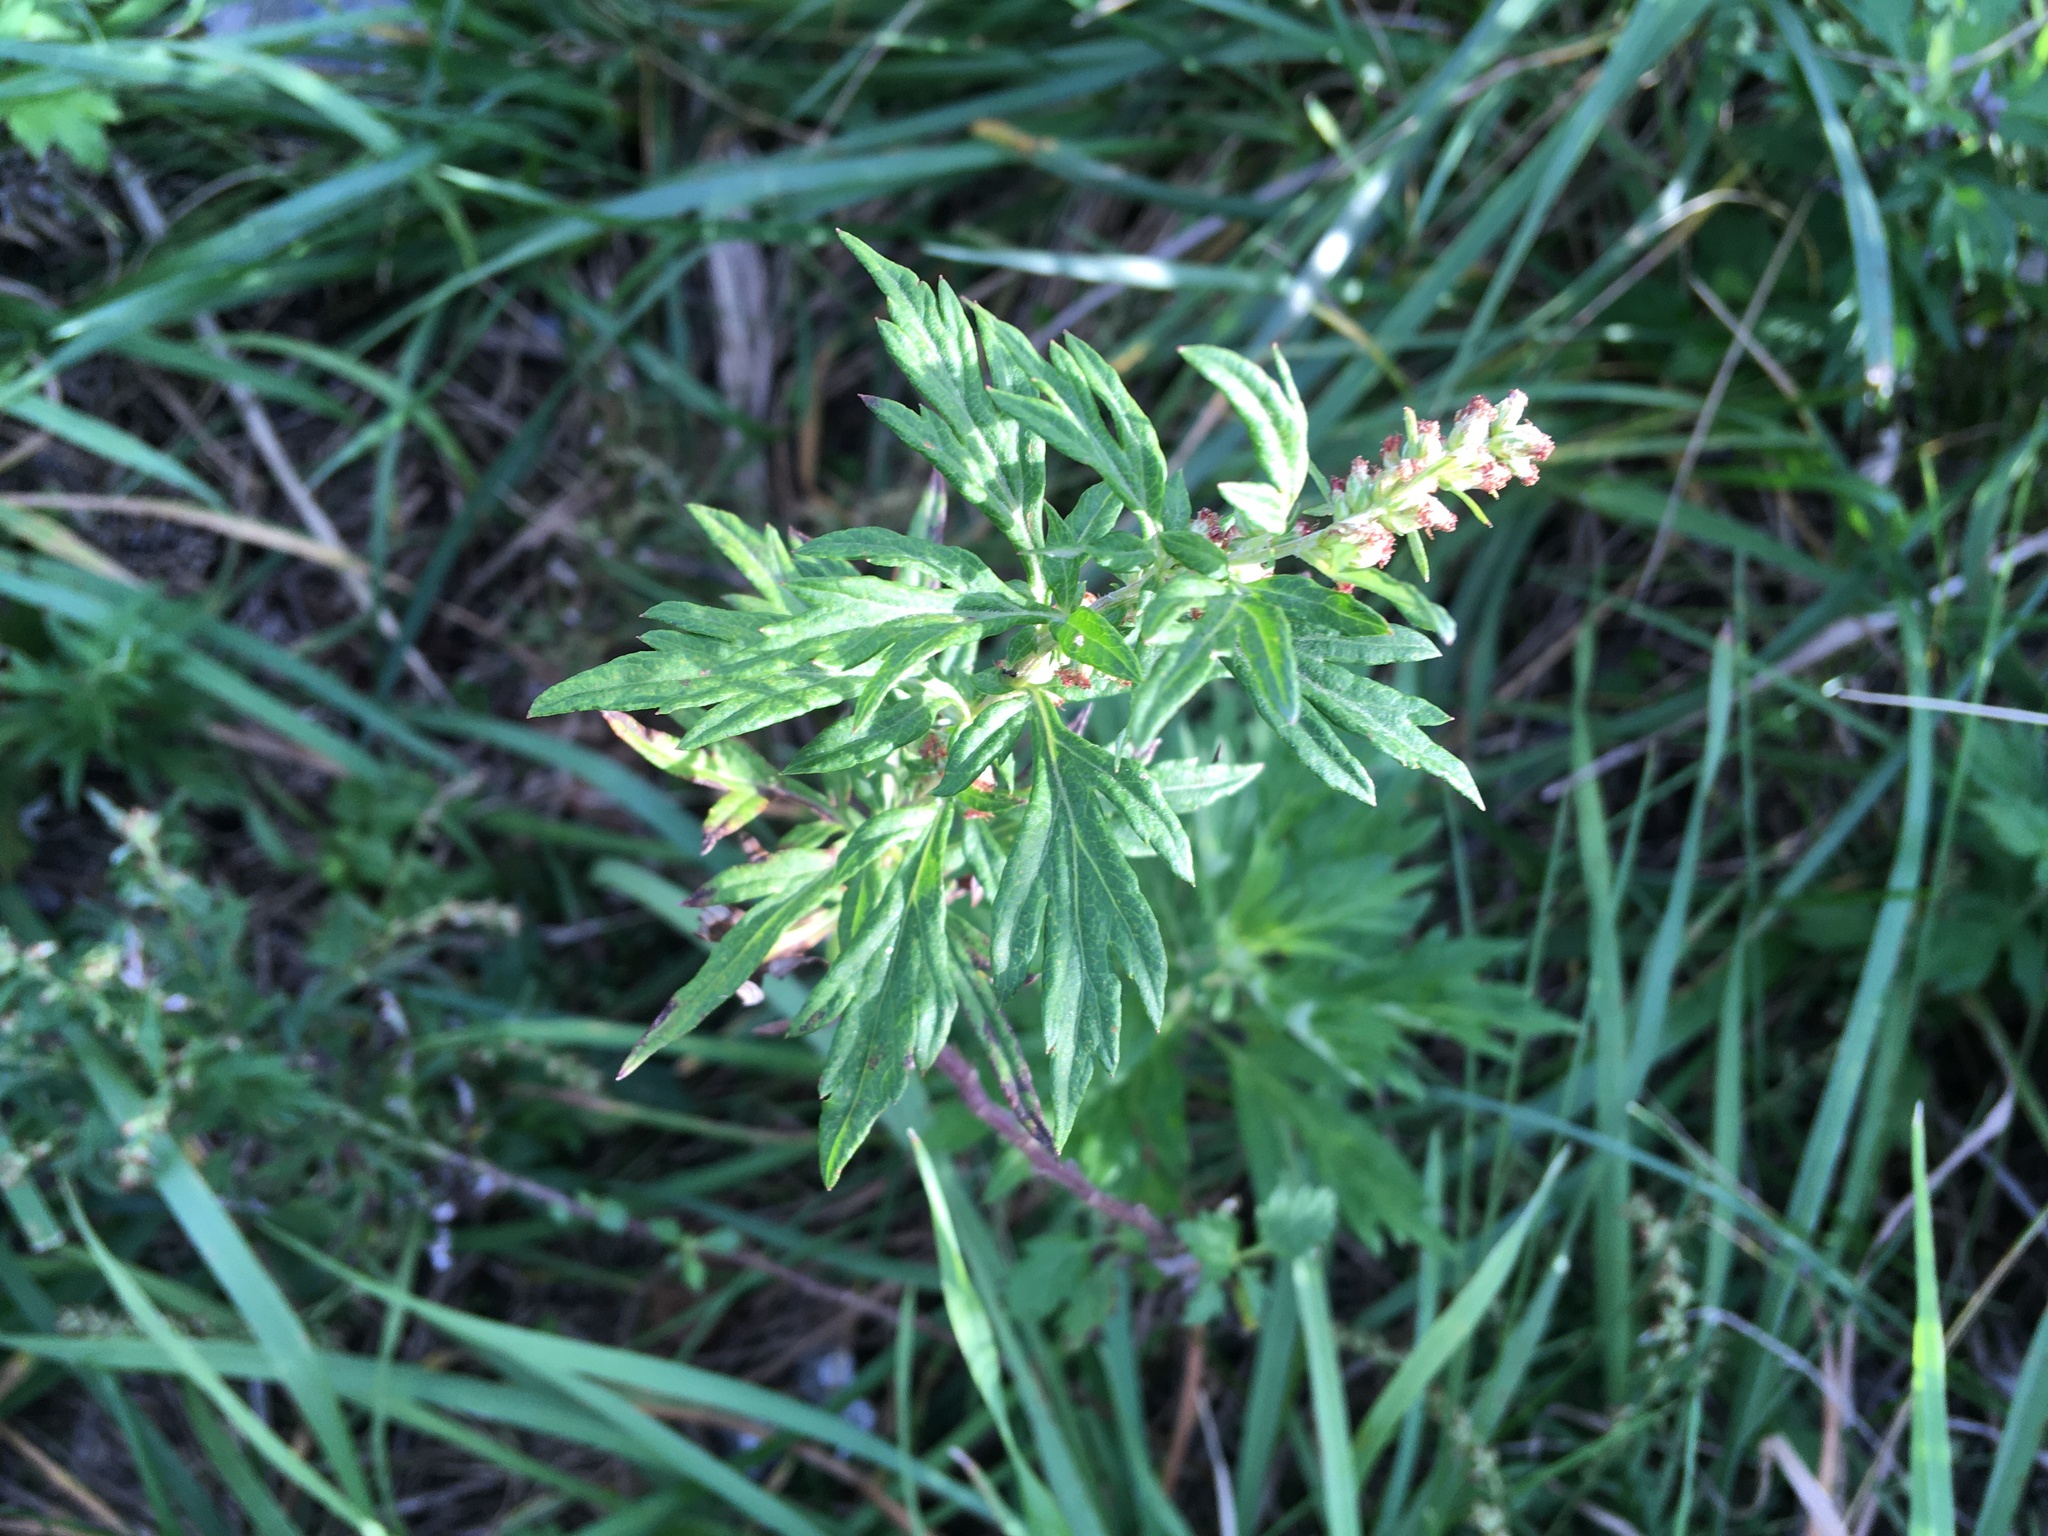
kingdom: Plantae
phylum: Tracheophyta
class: Magnoliopsida
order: Asterales
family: Asteraceae
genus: Artemisia
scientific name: Artemisia vulgaris
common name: Mugwort
